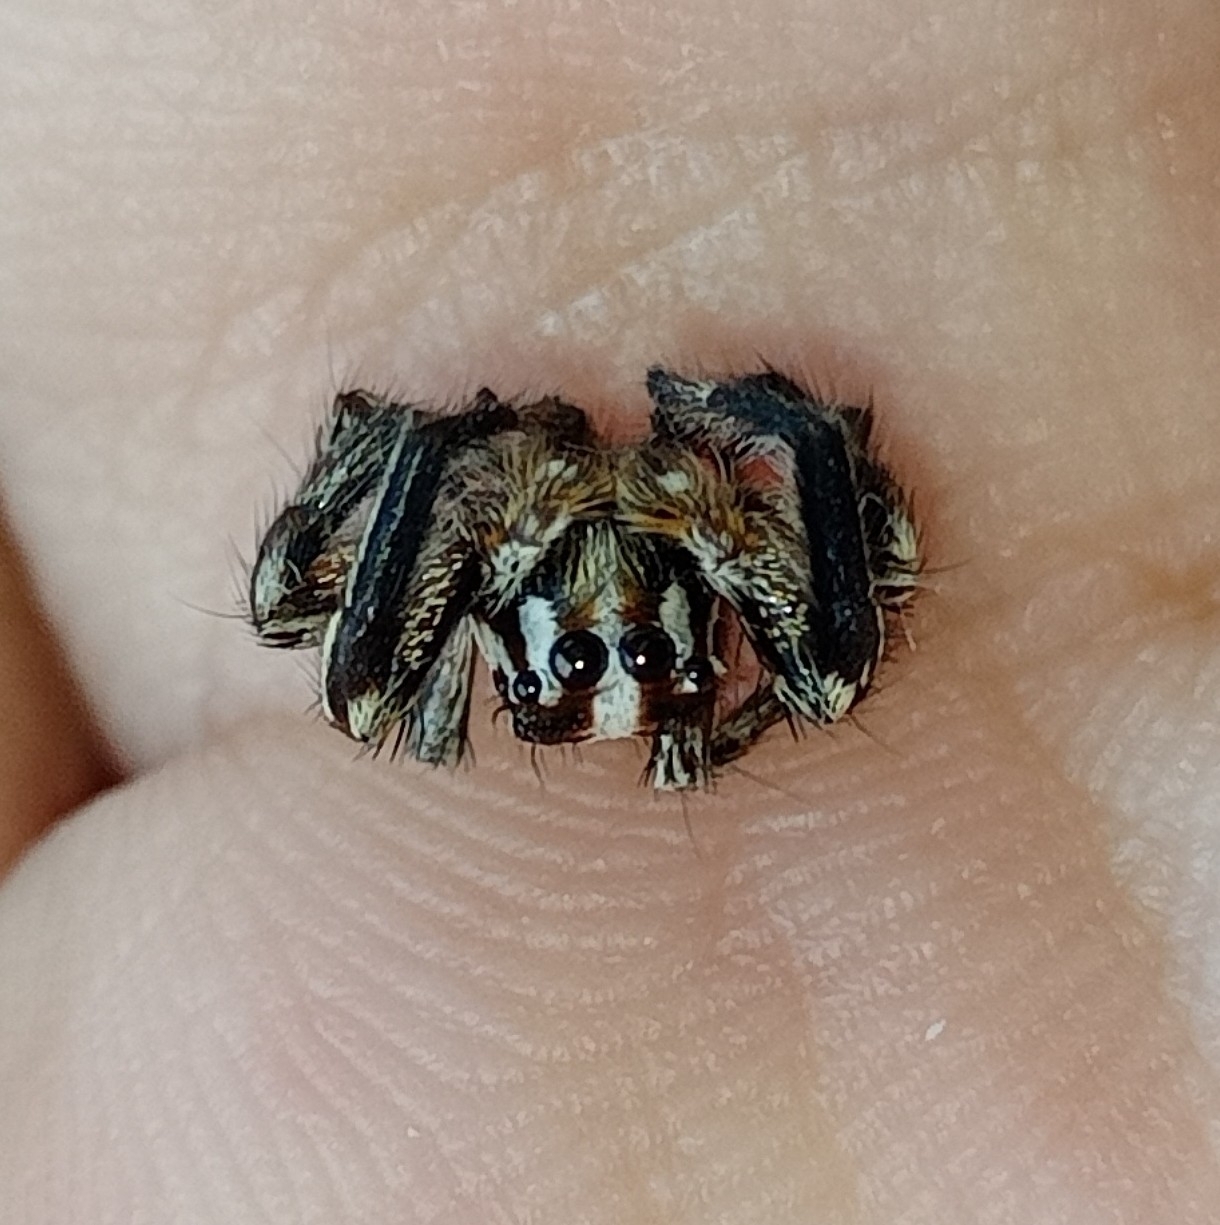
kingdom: Animalia
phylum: Arthropoda
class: Arachnida
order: Araneae
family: Salticidae
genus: Plexippus
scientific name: Plexippus paykulli
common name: Pantropical jumper
